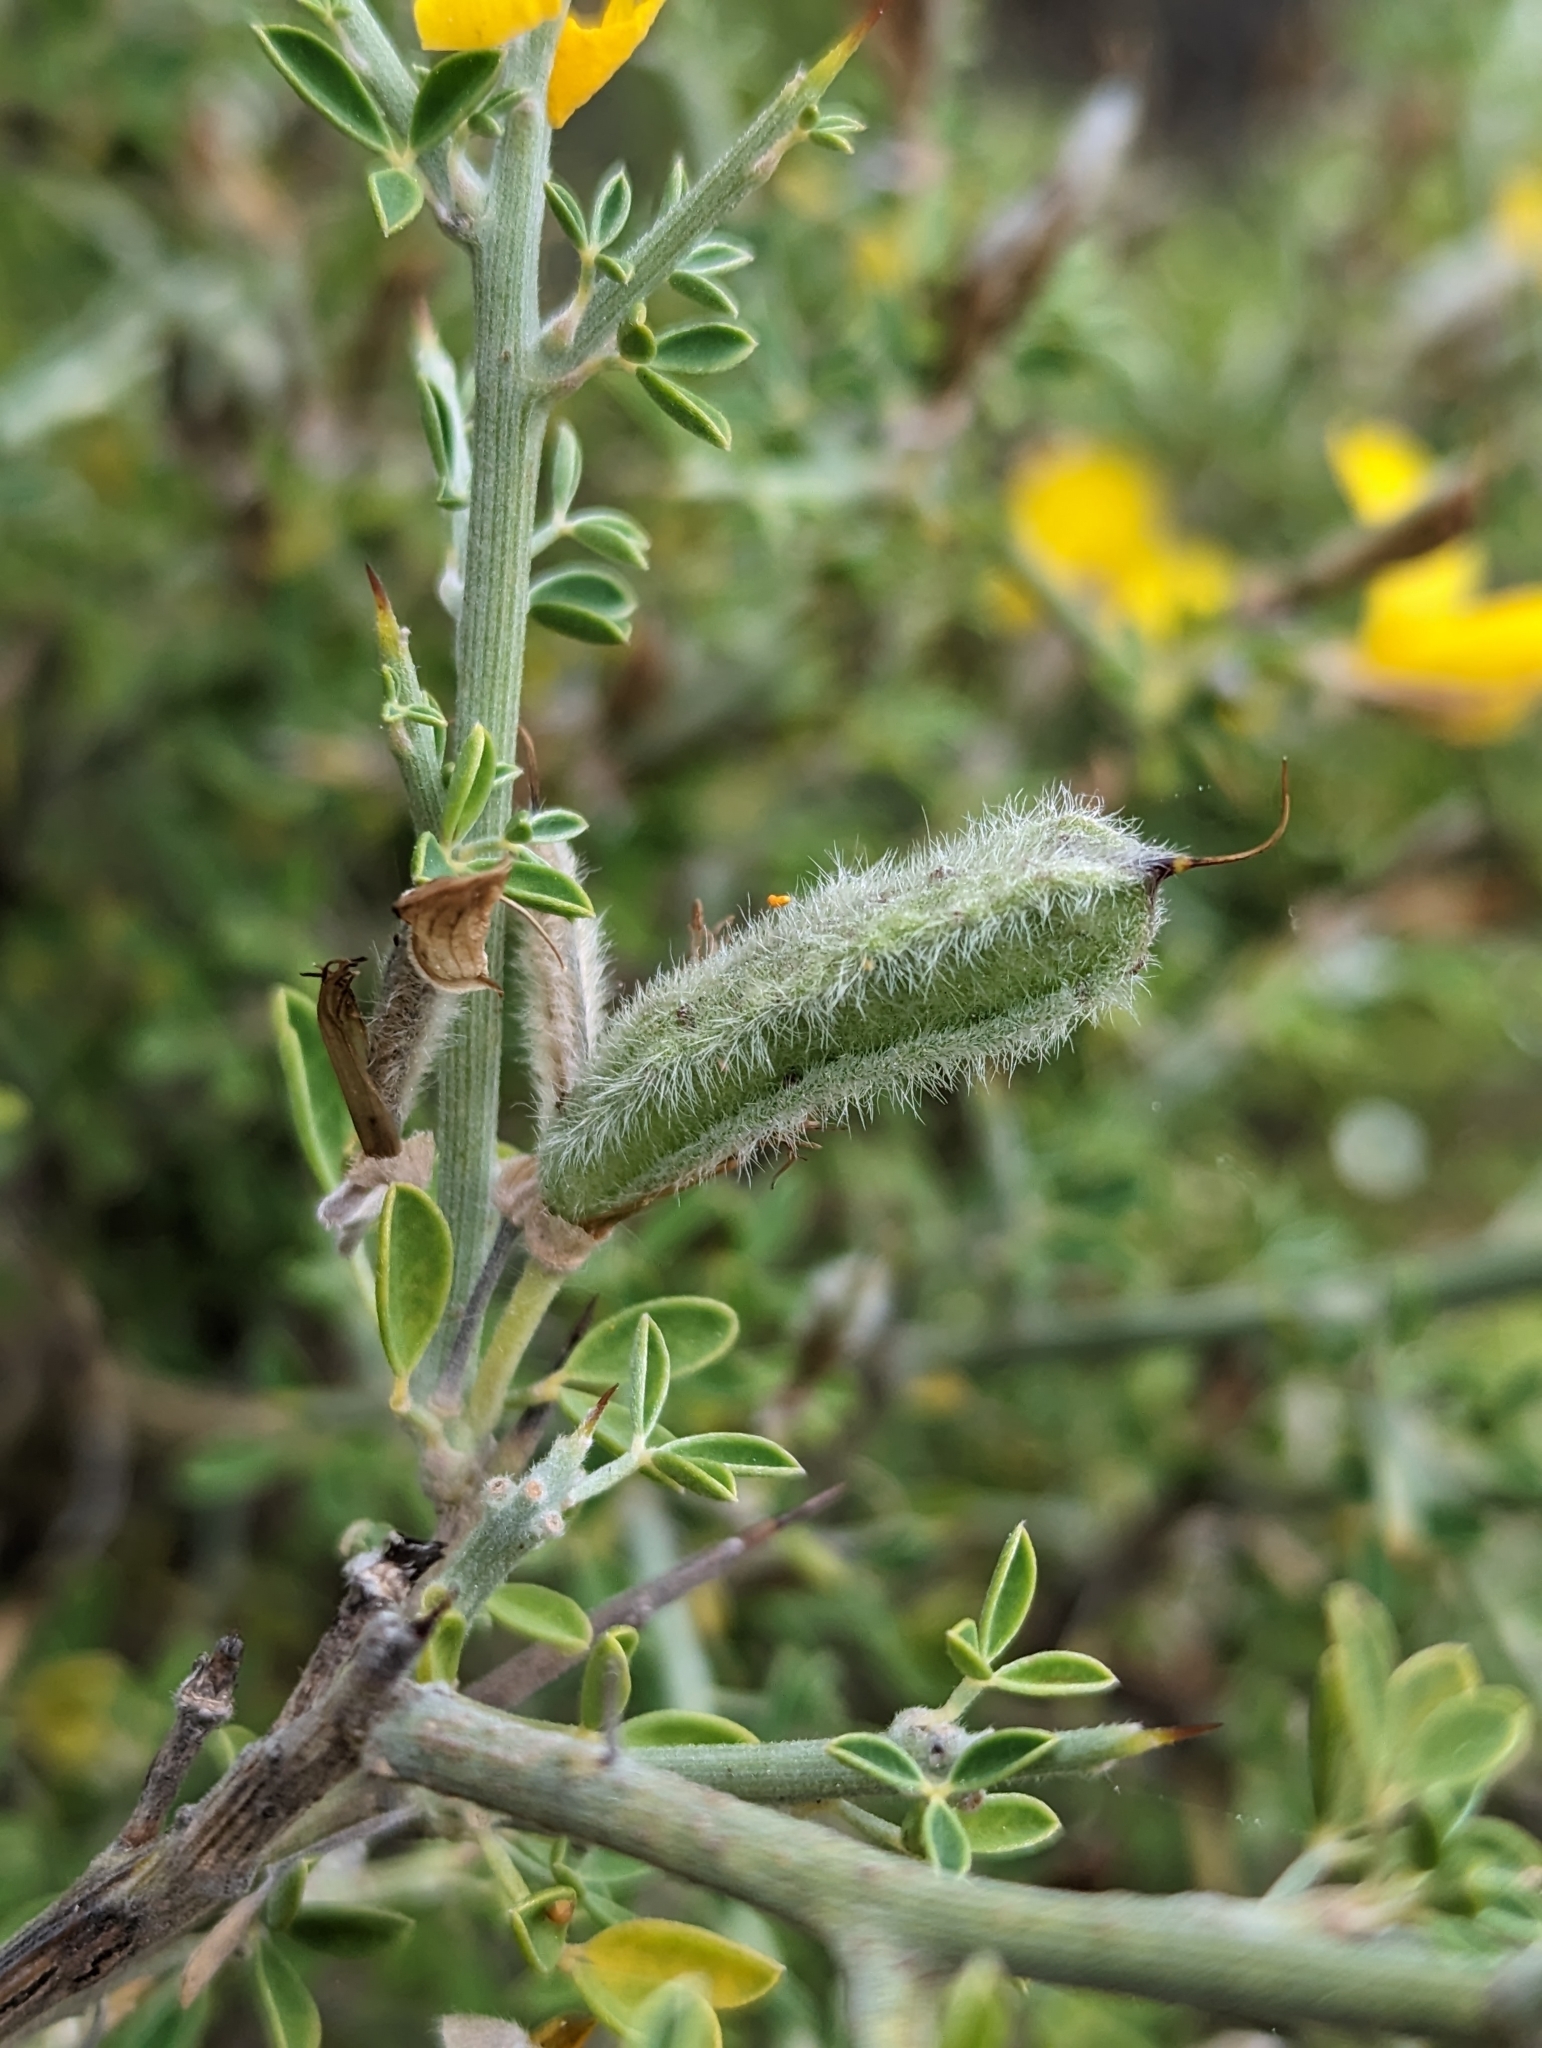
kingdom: Plantae
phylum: Tracheophyta
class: Magnoliopsida
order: Fabales
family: Fabaceae
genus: Calicotome
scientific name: Calicotome villosa
